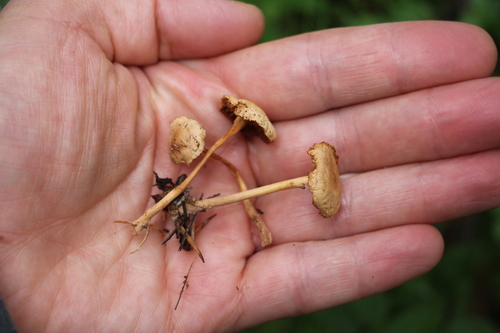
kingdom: Fungi
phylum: Basidiomycota
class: Agaricomycetes
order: Agaricales
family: Omphalotaceae
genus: Gymnopus
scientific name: Gymnopus dryophilus
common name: Penny top
